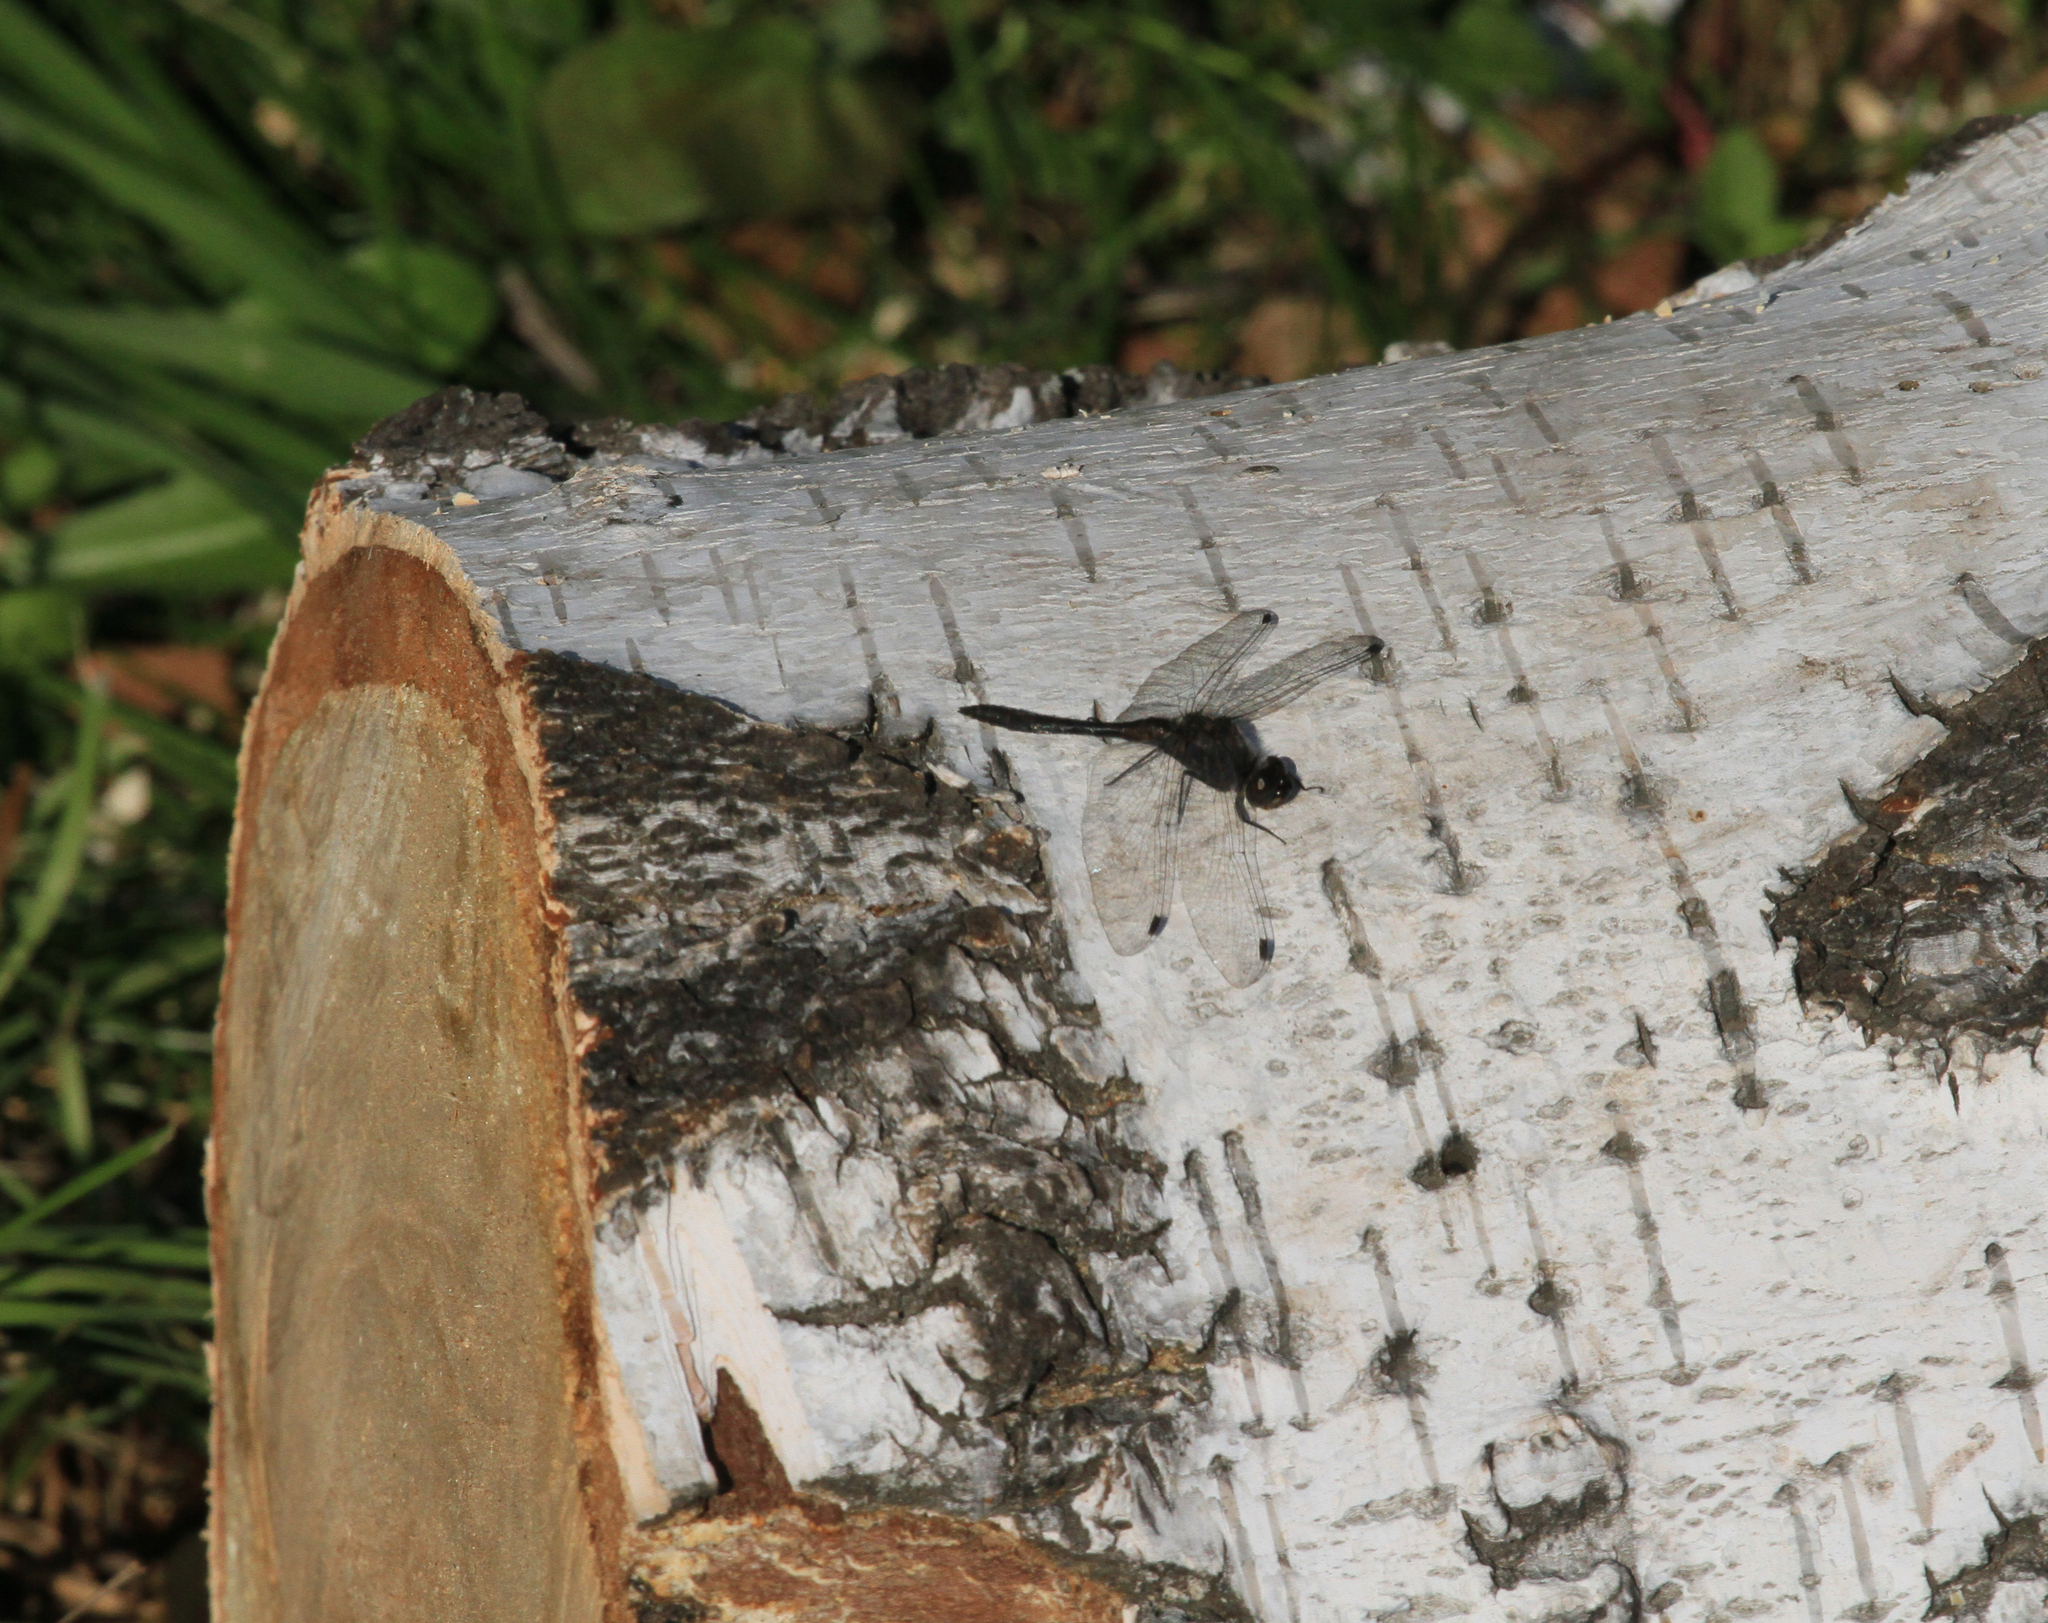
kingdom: Animalia
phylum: Arthropoda
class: Insecta
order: Odonata
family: Libellulidae
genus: Sympetrum
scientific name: Sympetrum danae
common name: Black darter
